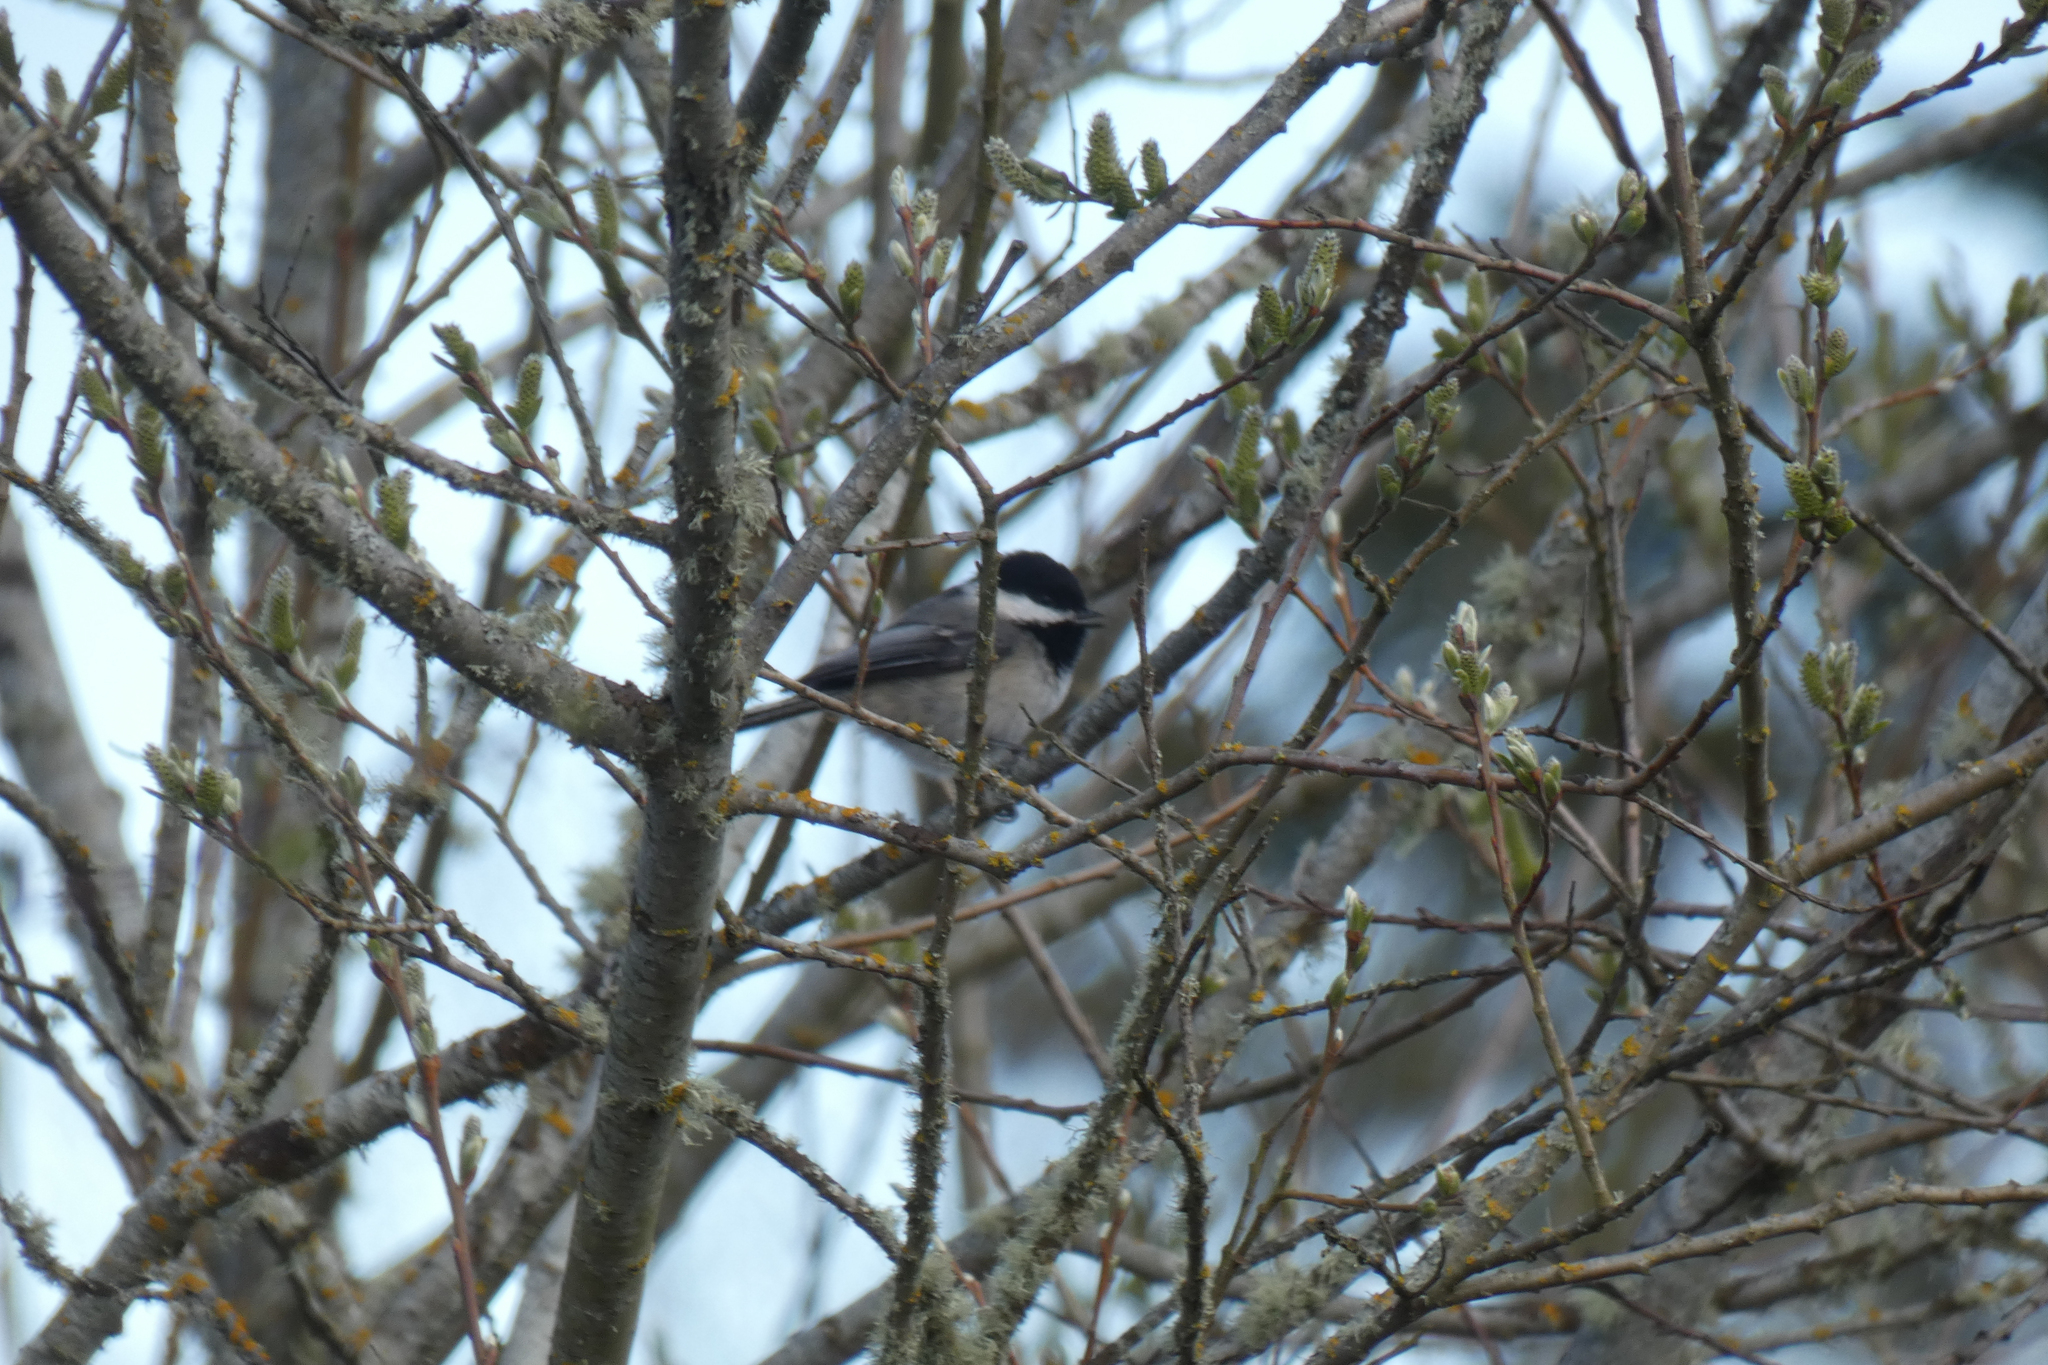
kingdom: Animalia
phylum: Chordata
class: Aves
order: Passeriformes
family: Paridae
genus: Poecile
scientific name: Poecile atricapillus
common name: Black-capped chickadee
